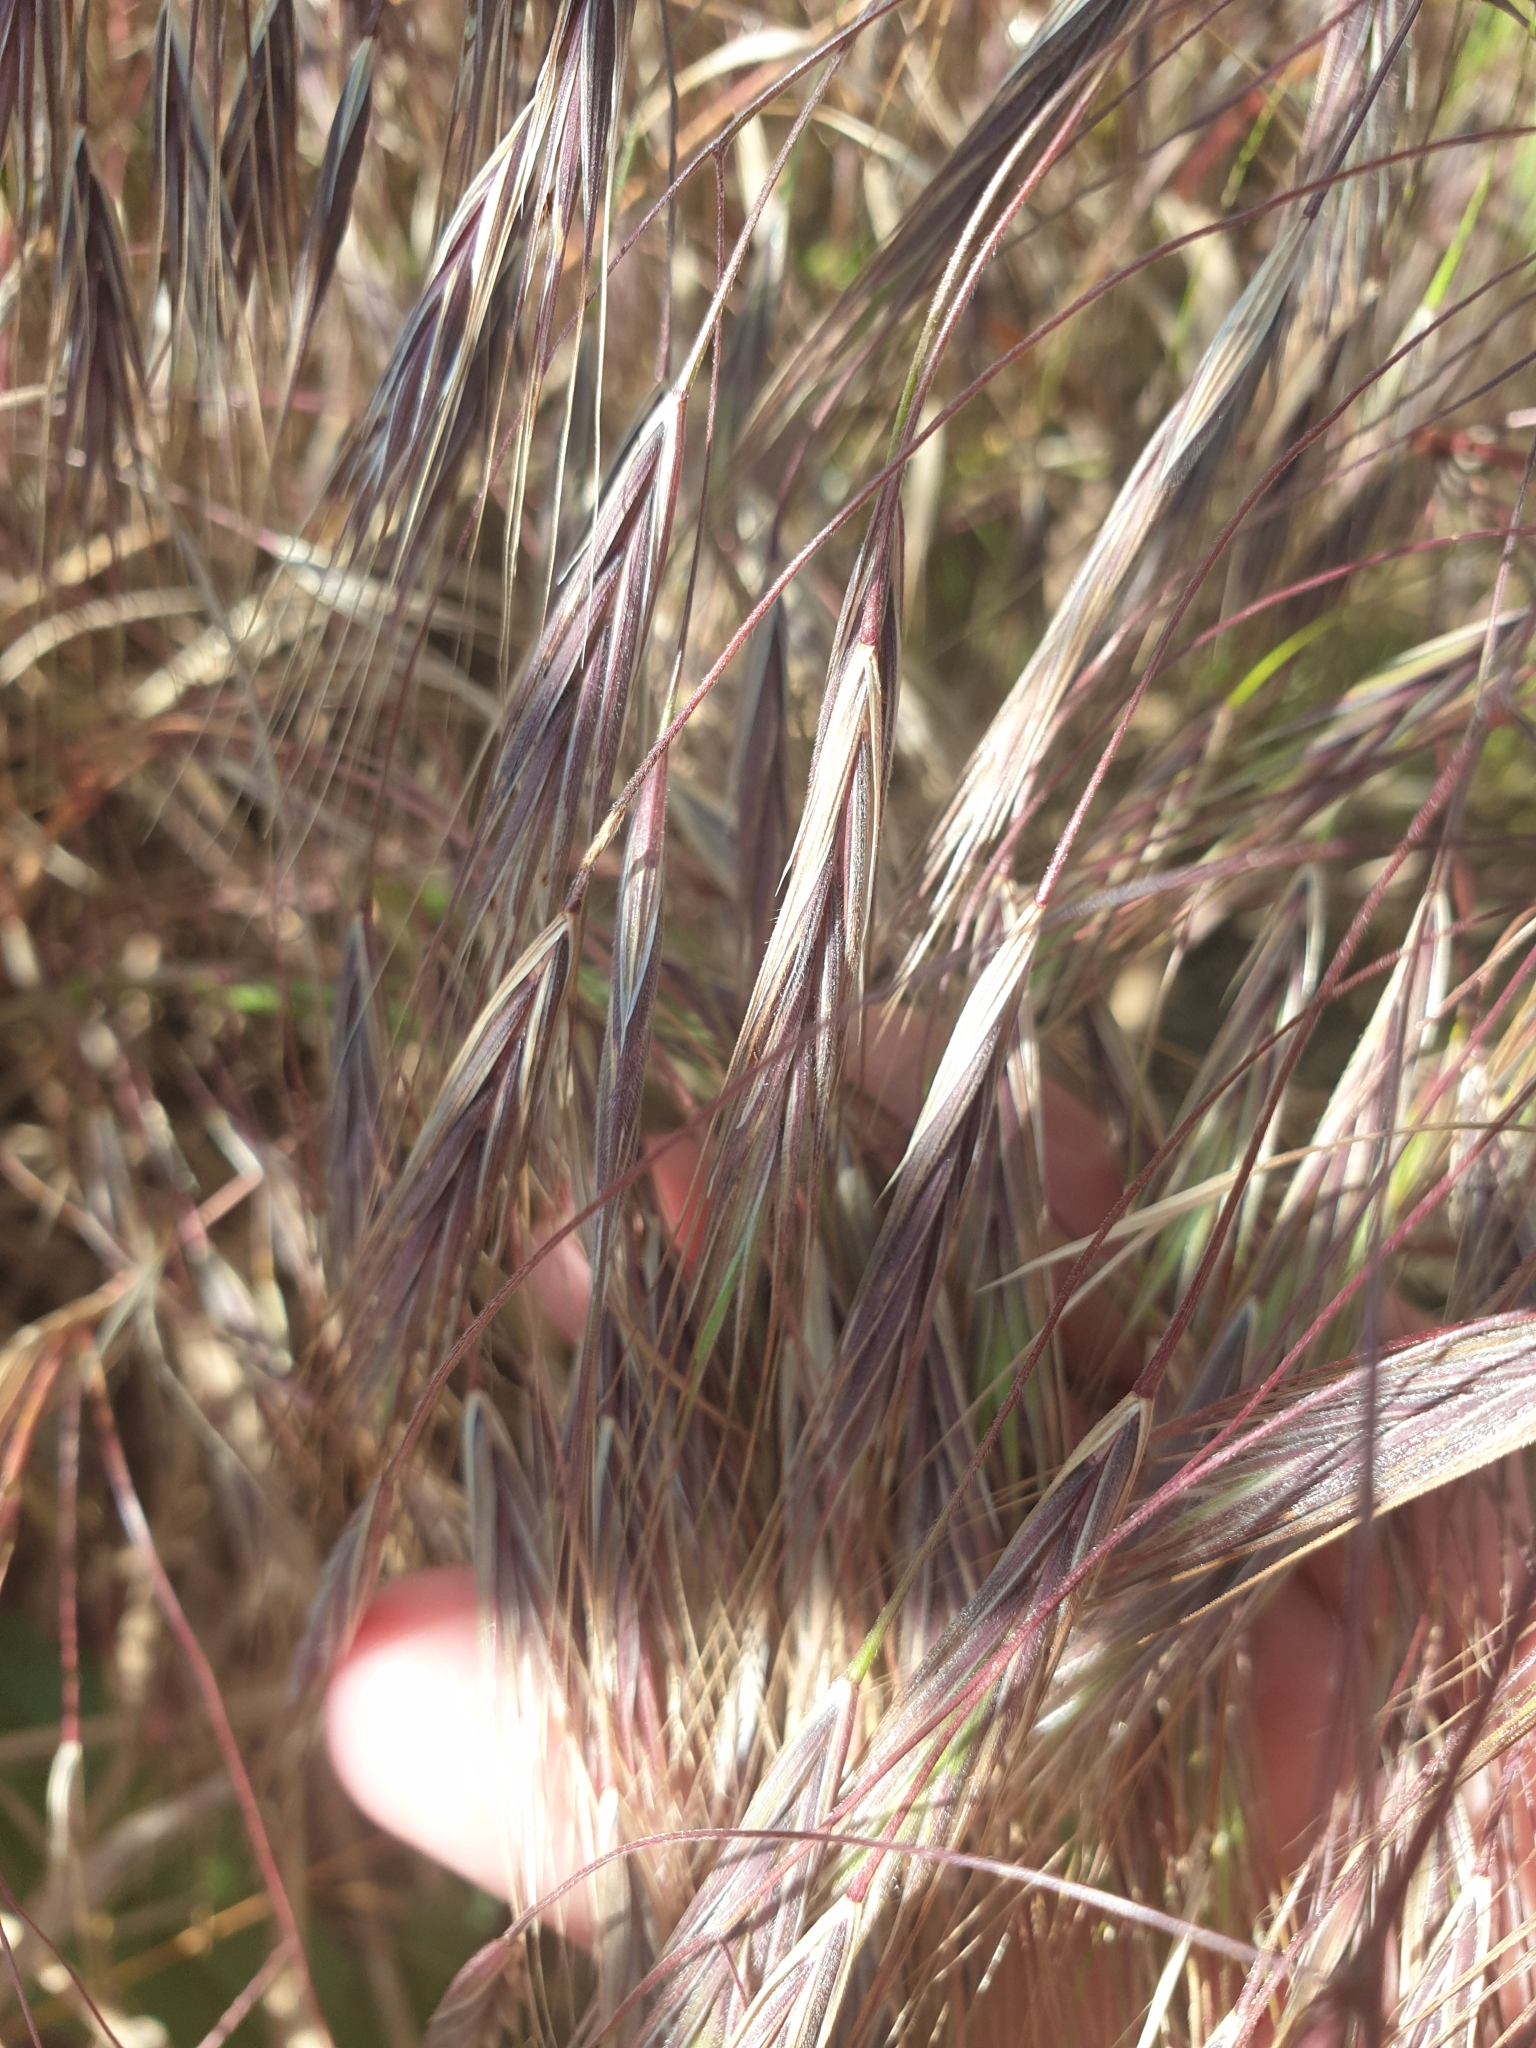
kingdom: Plantae
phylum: Tracheophyta
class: Liliopsida
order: Poales
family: Poaceae
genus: Bromus
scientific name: Bromus tectorum
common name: Cheatgrass
